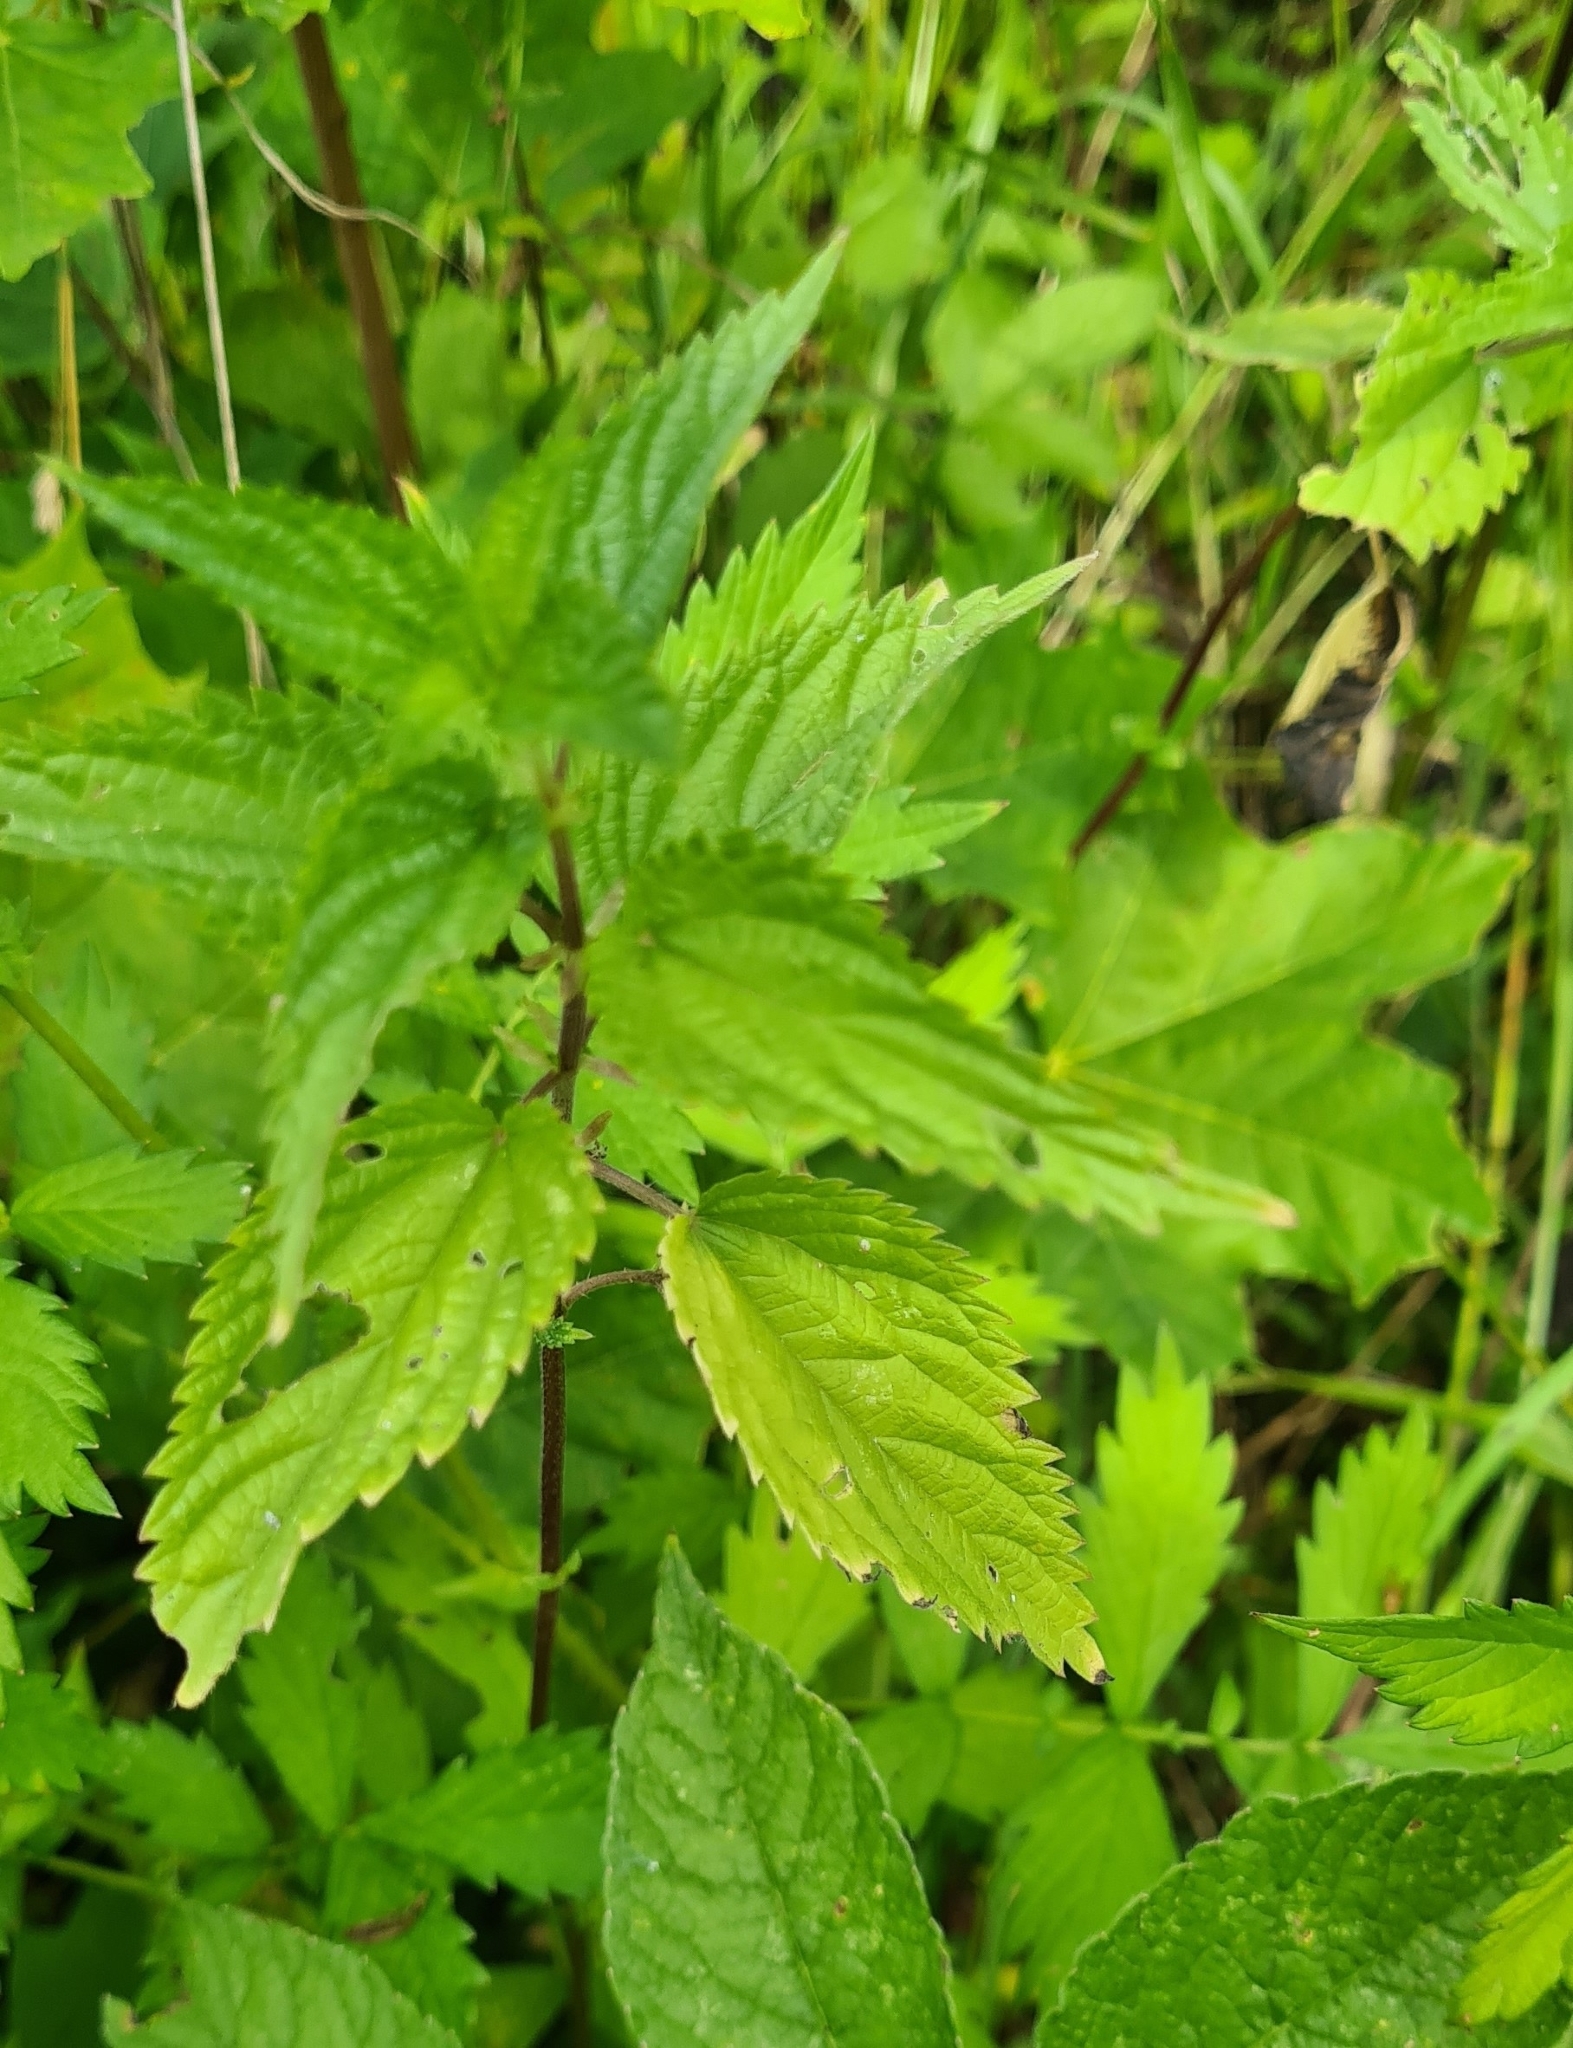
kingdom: Plantae
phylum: Tracheophyta
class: Magnoliopsida
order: Rosales
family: Urticaceae
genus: Urtica
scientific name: Urtica dioica
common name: Common nettle
